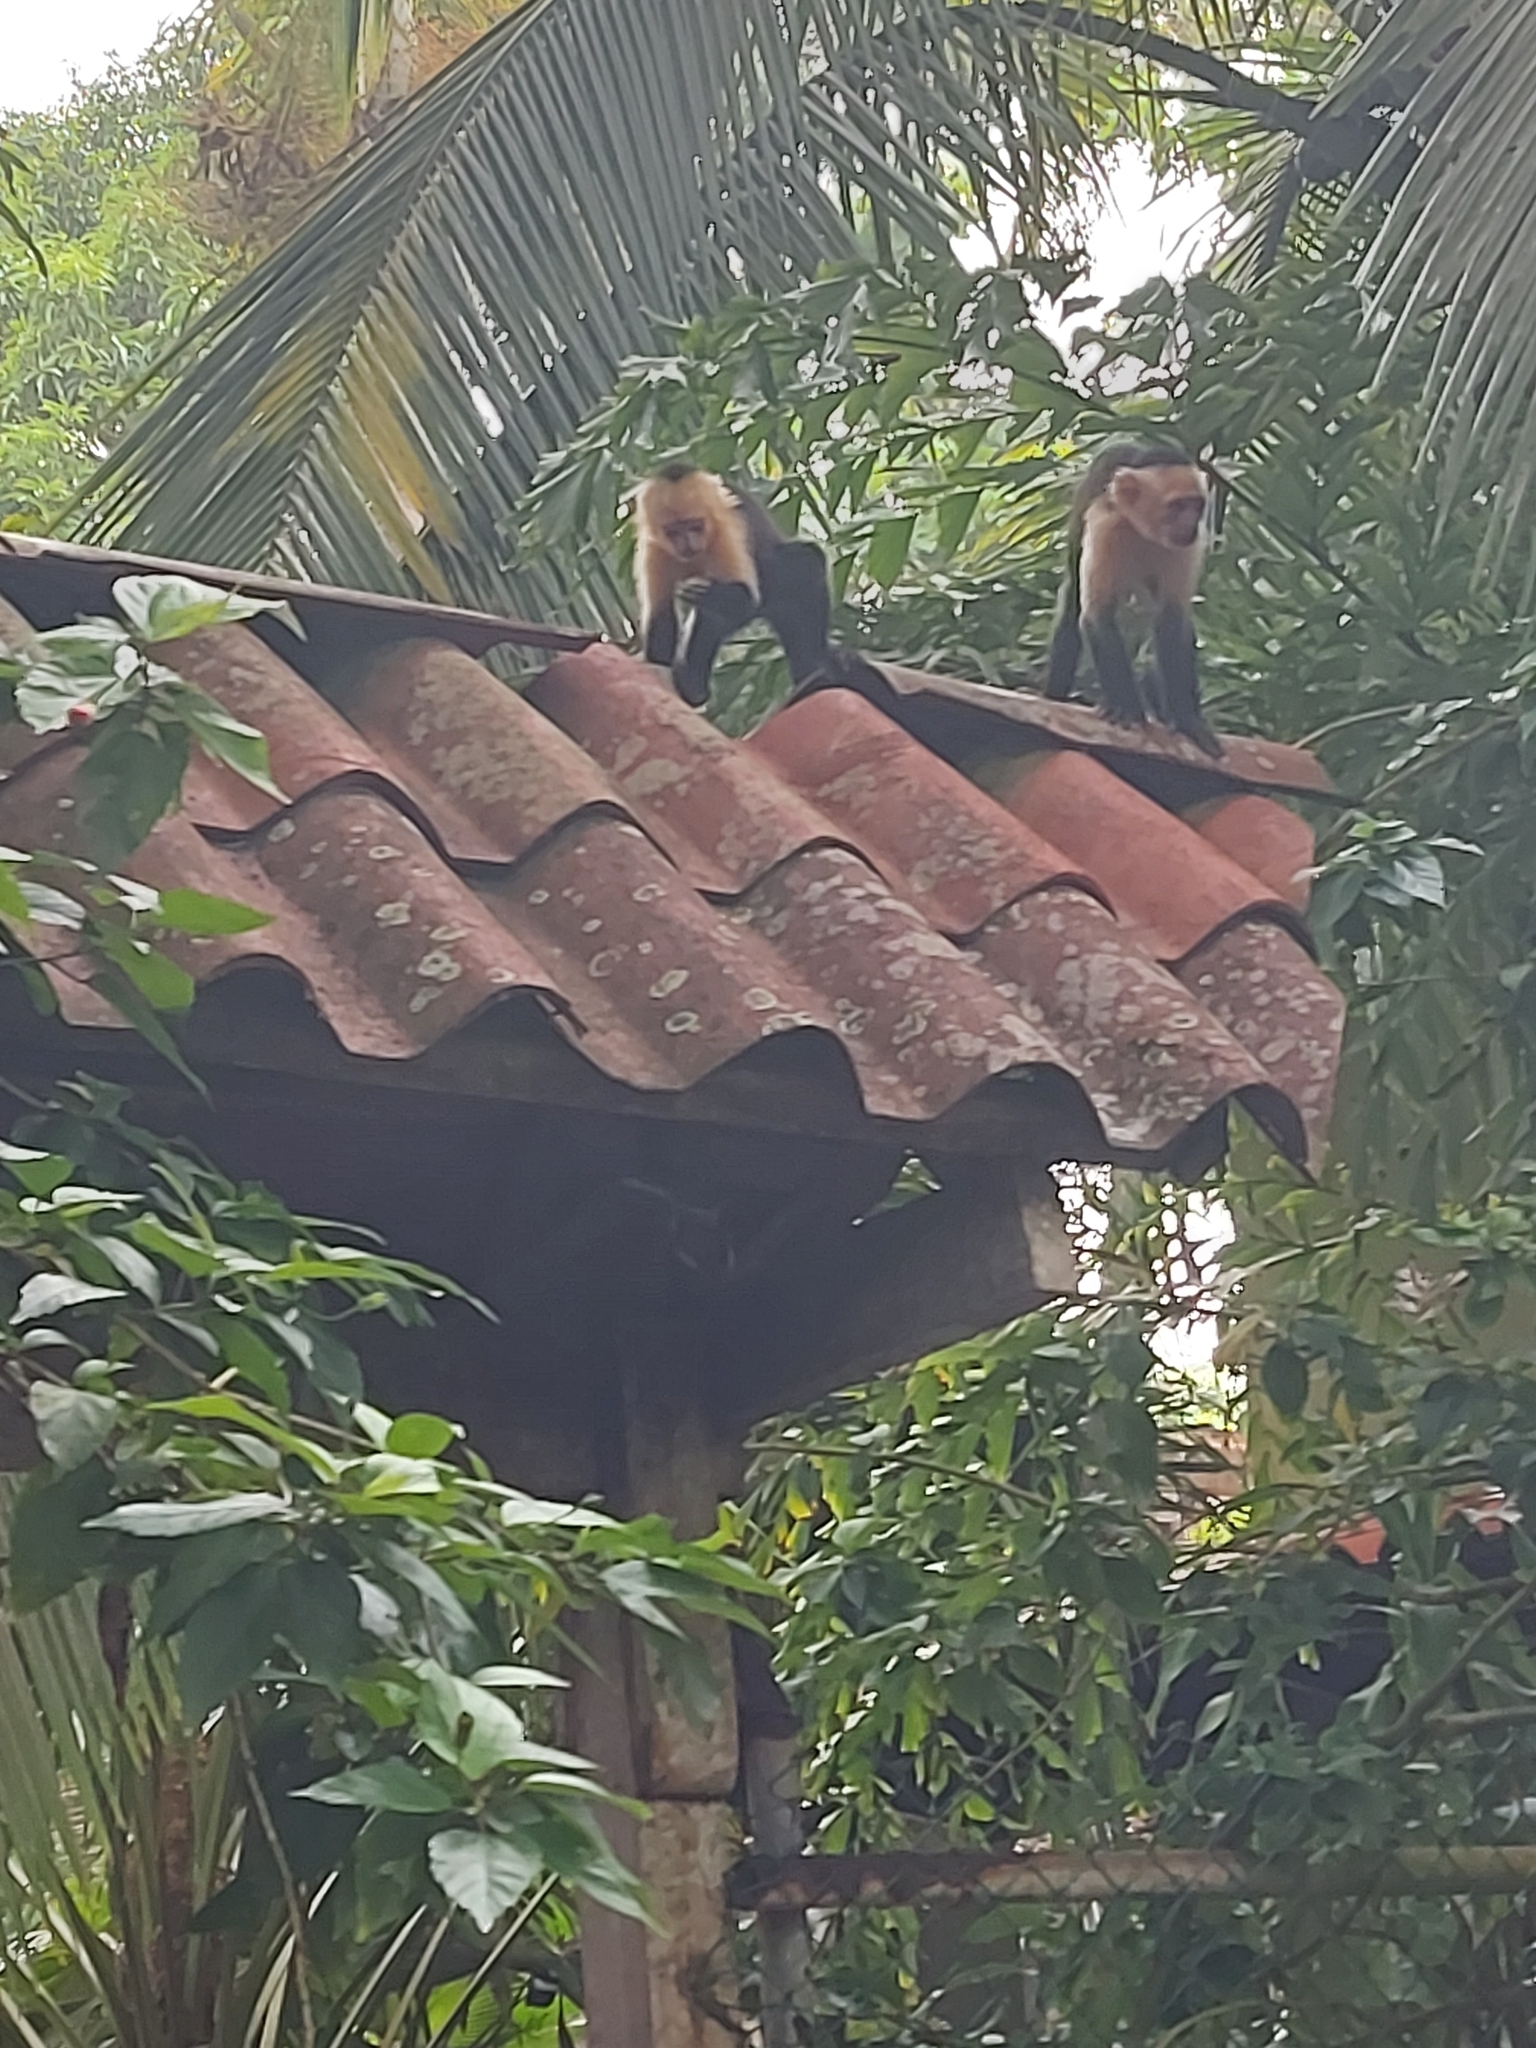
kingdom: Animalia
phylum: Chordata
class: Mammalia
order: Primates
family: Cebidae
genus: Cebus
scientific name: Cebus imitator
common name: Panamanian white-faced capuchin
